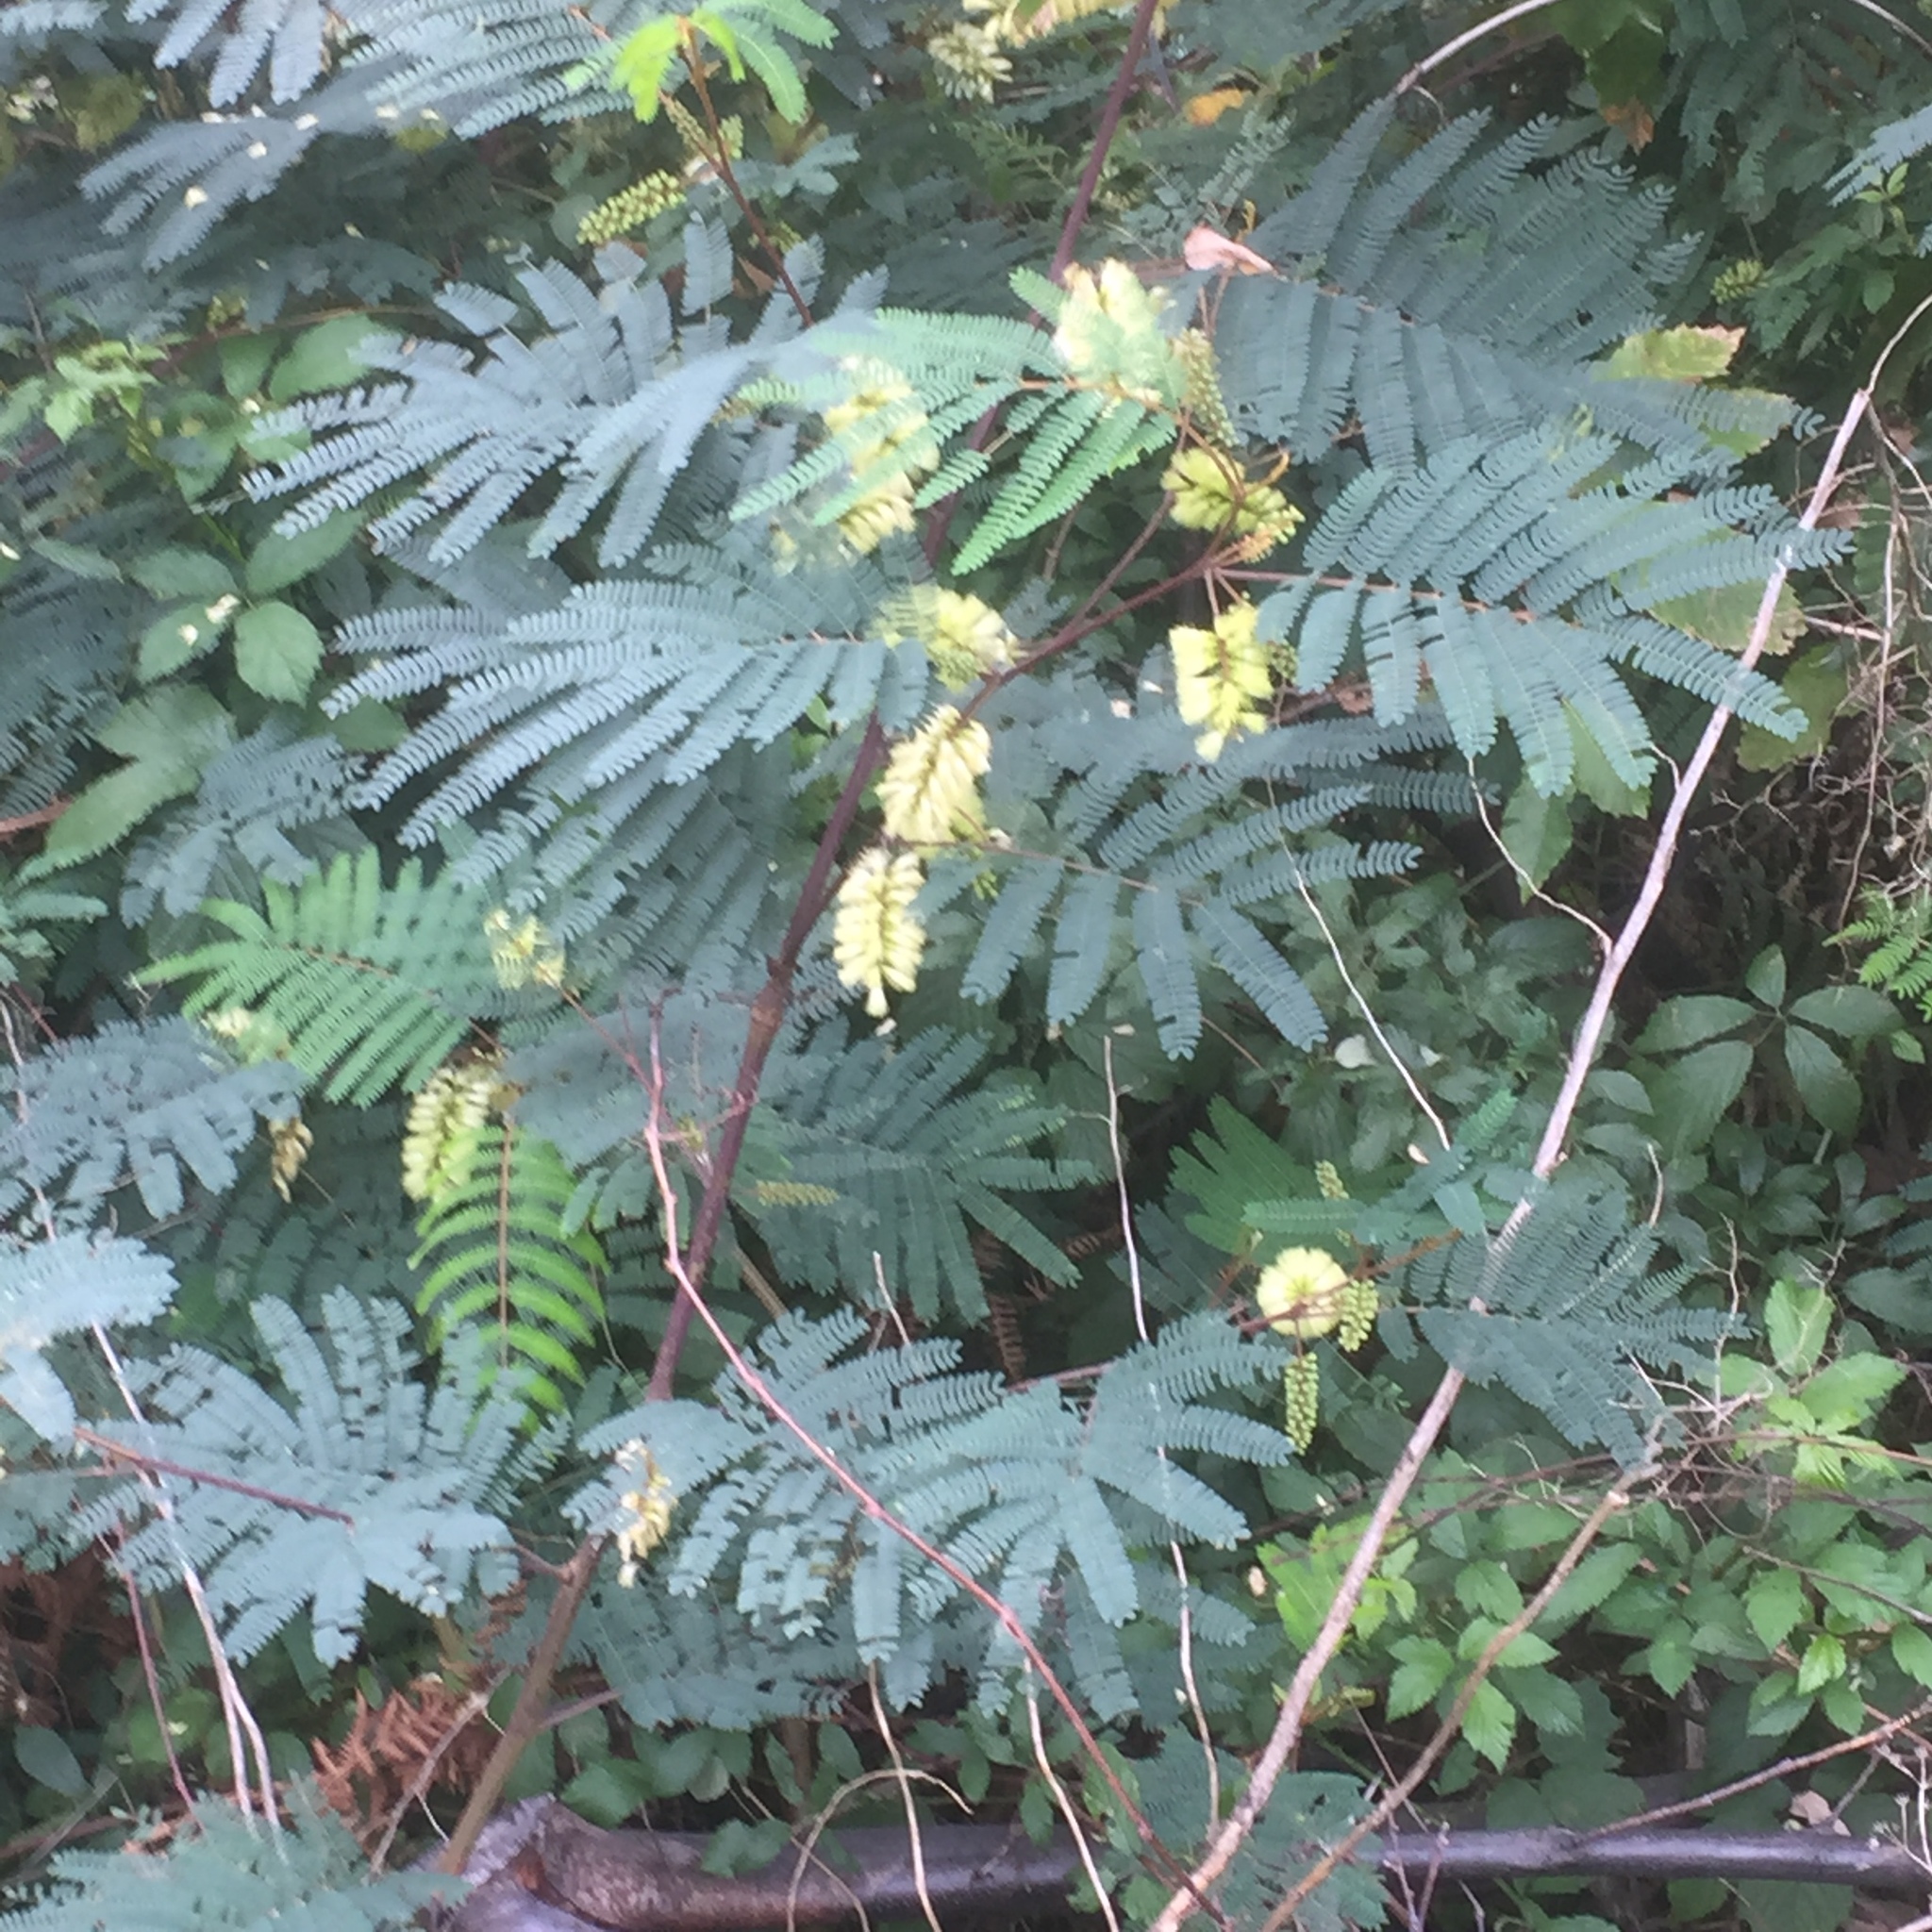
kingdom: Plantae
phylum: Tracheophyta
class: Magnoliopsida
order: Fabales
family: Fabaceae
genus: Paraserianthes
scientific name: Paraserianthes lophantha
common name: Plume albizia
